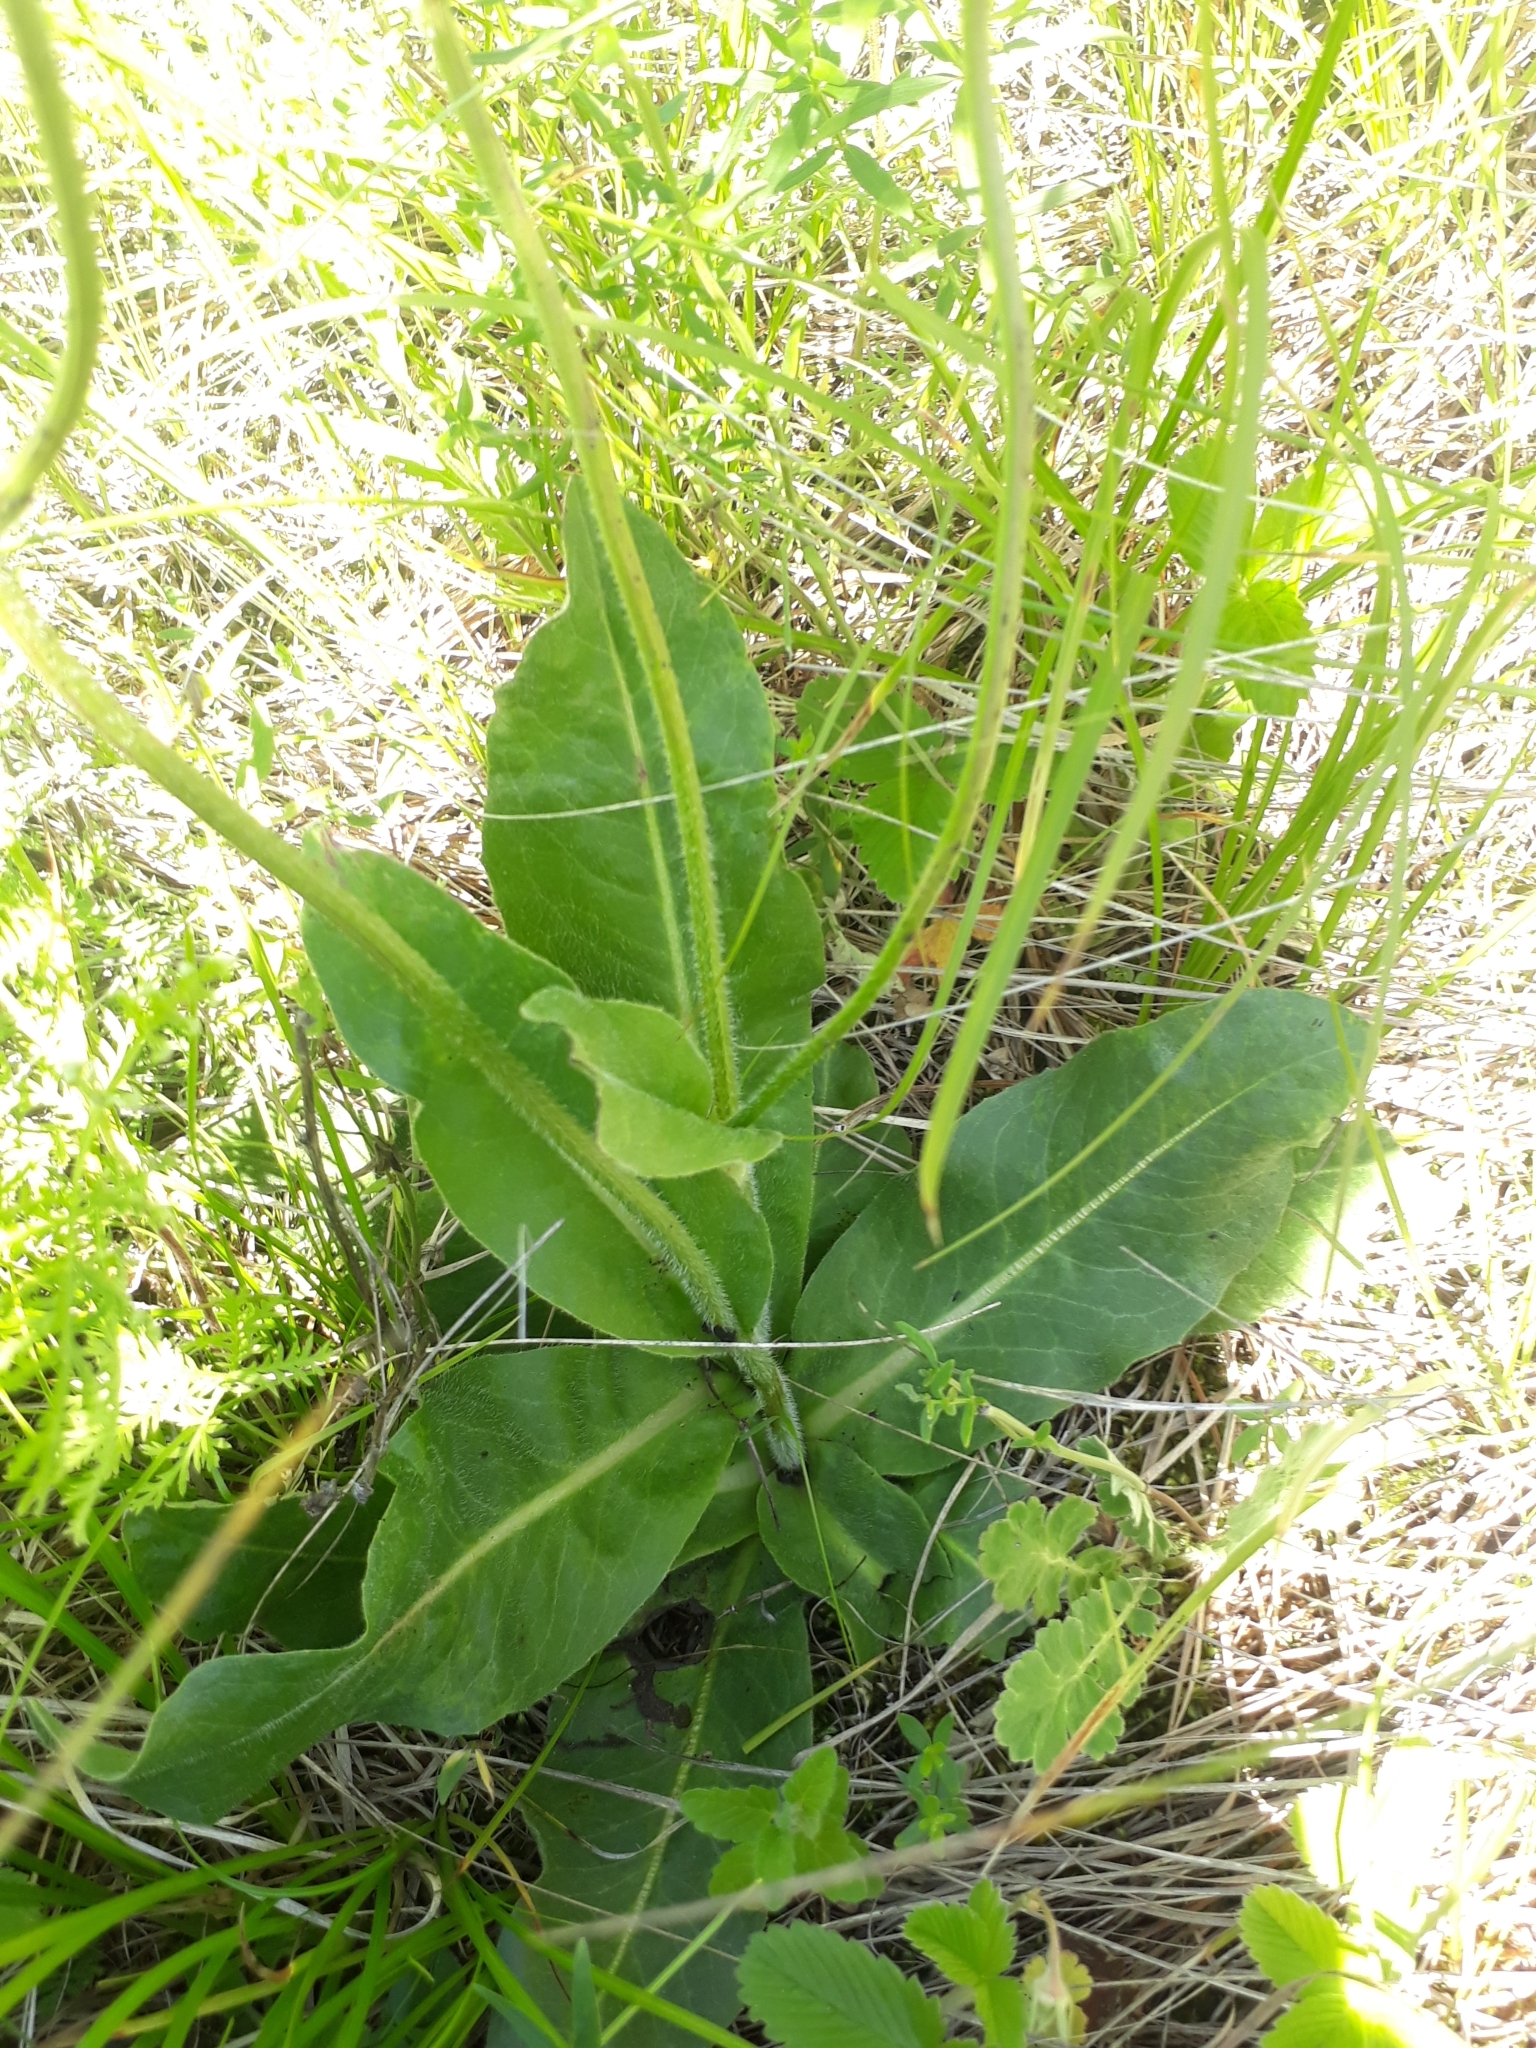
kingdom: Plantae
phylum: Tracheophyta
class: Magnoliopsida
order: Asterales
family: Asteraceae
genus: Trommsdorffia
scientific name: Trommsdorffia maculata
